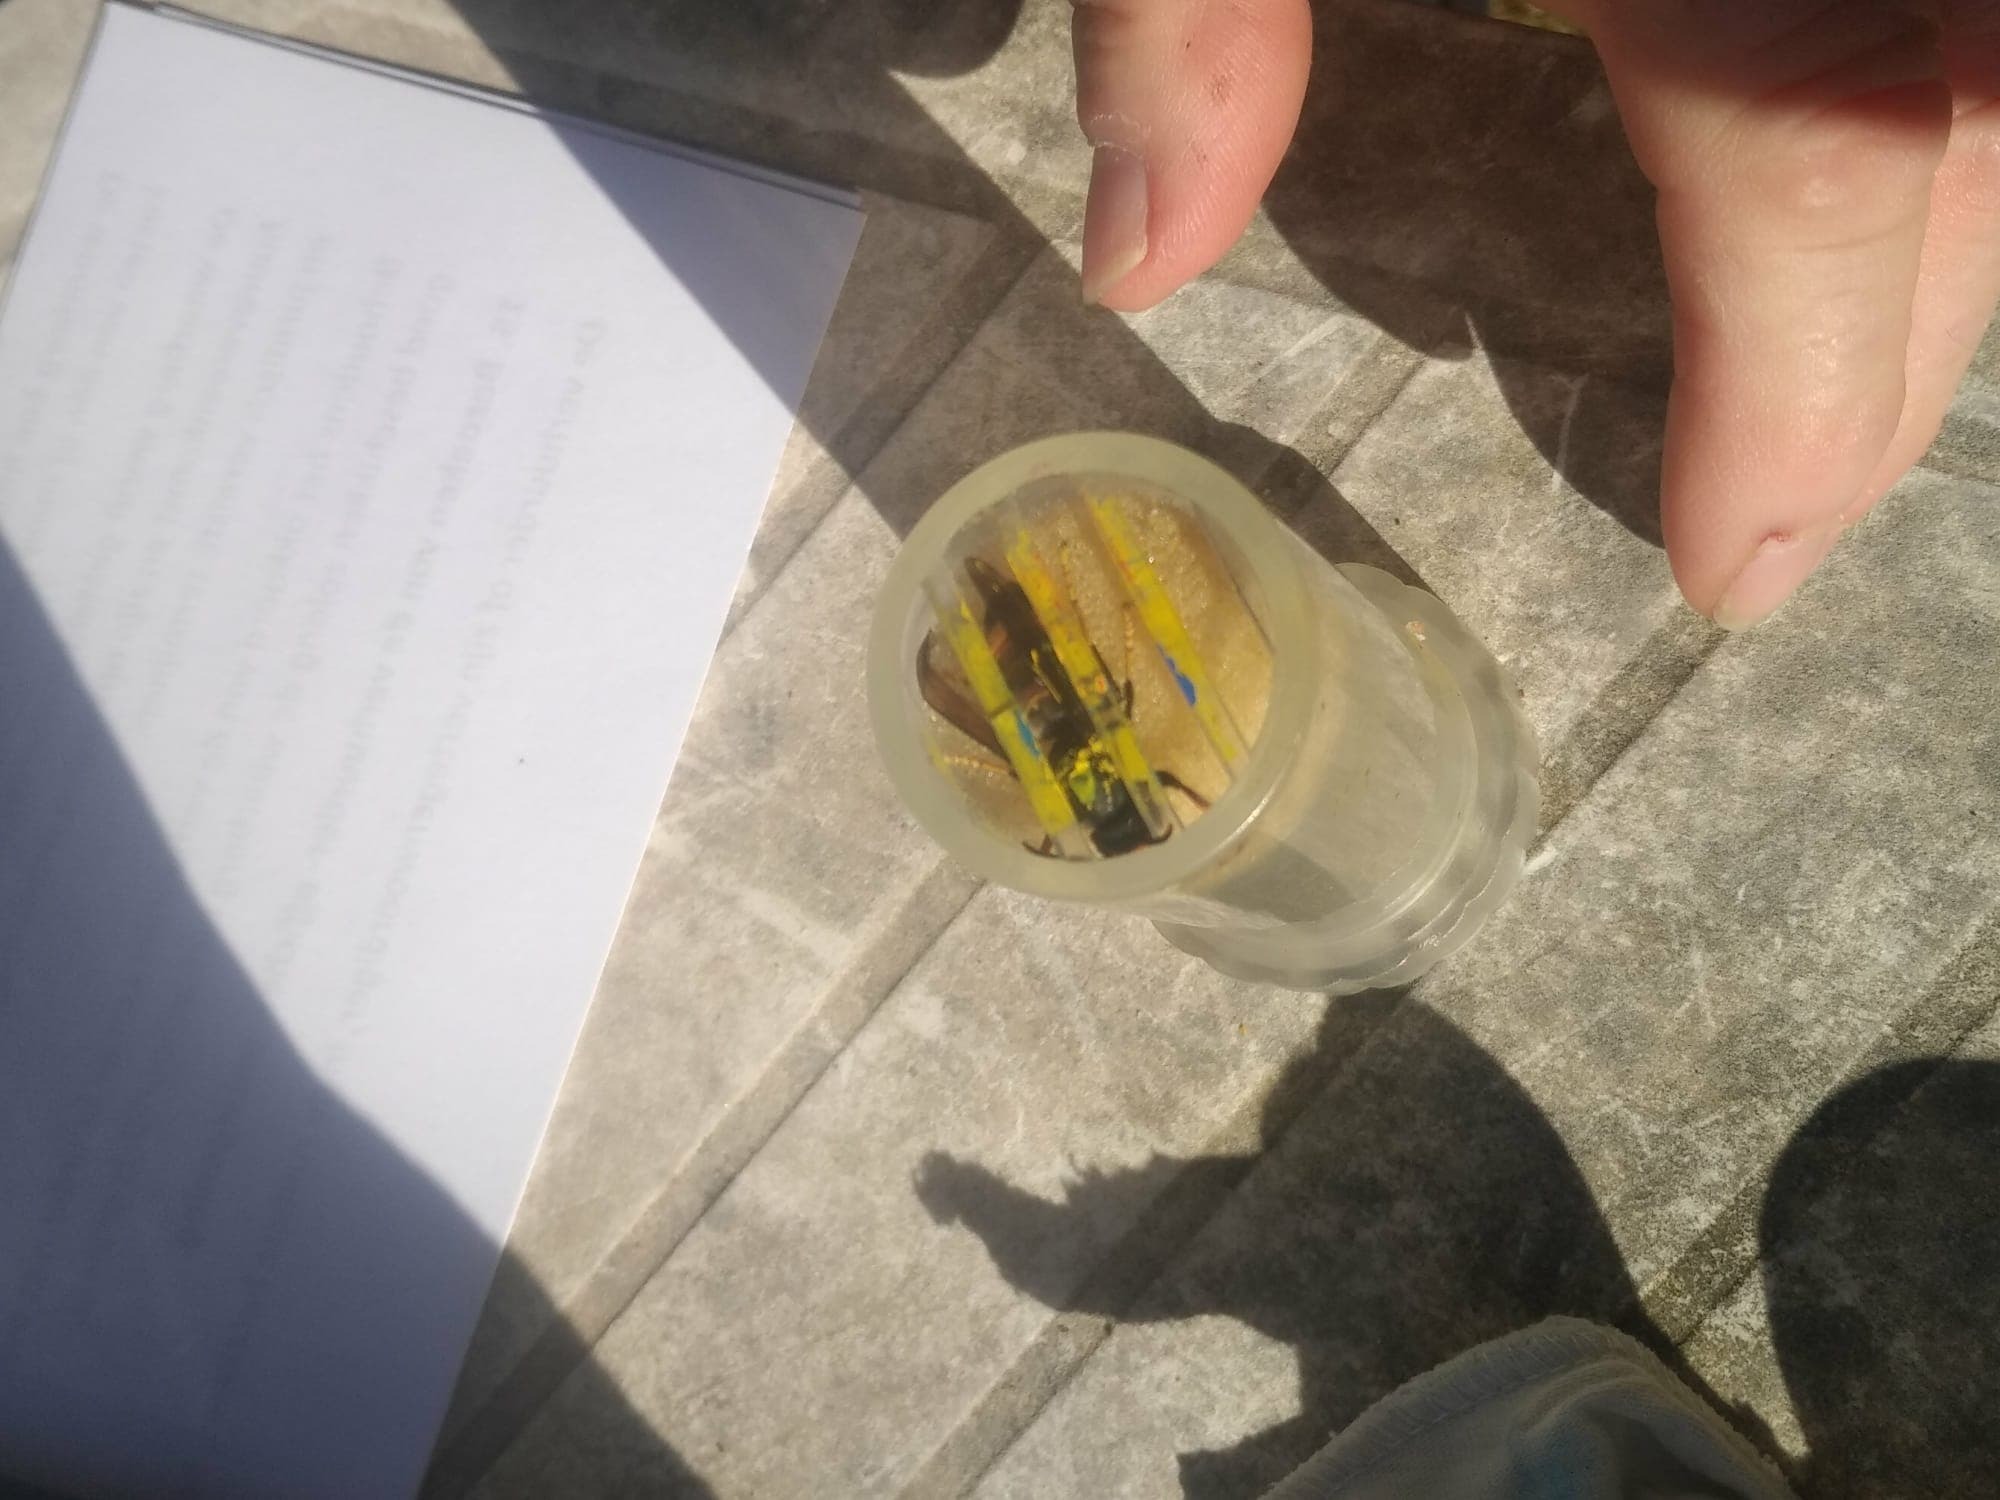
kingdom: Animalia
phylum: Arthropoda
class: Insecta
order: Hymenoptera
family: Vespidae
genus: Vespa
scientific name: Vespa velutina
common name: Asian hornet
